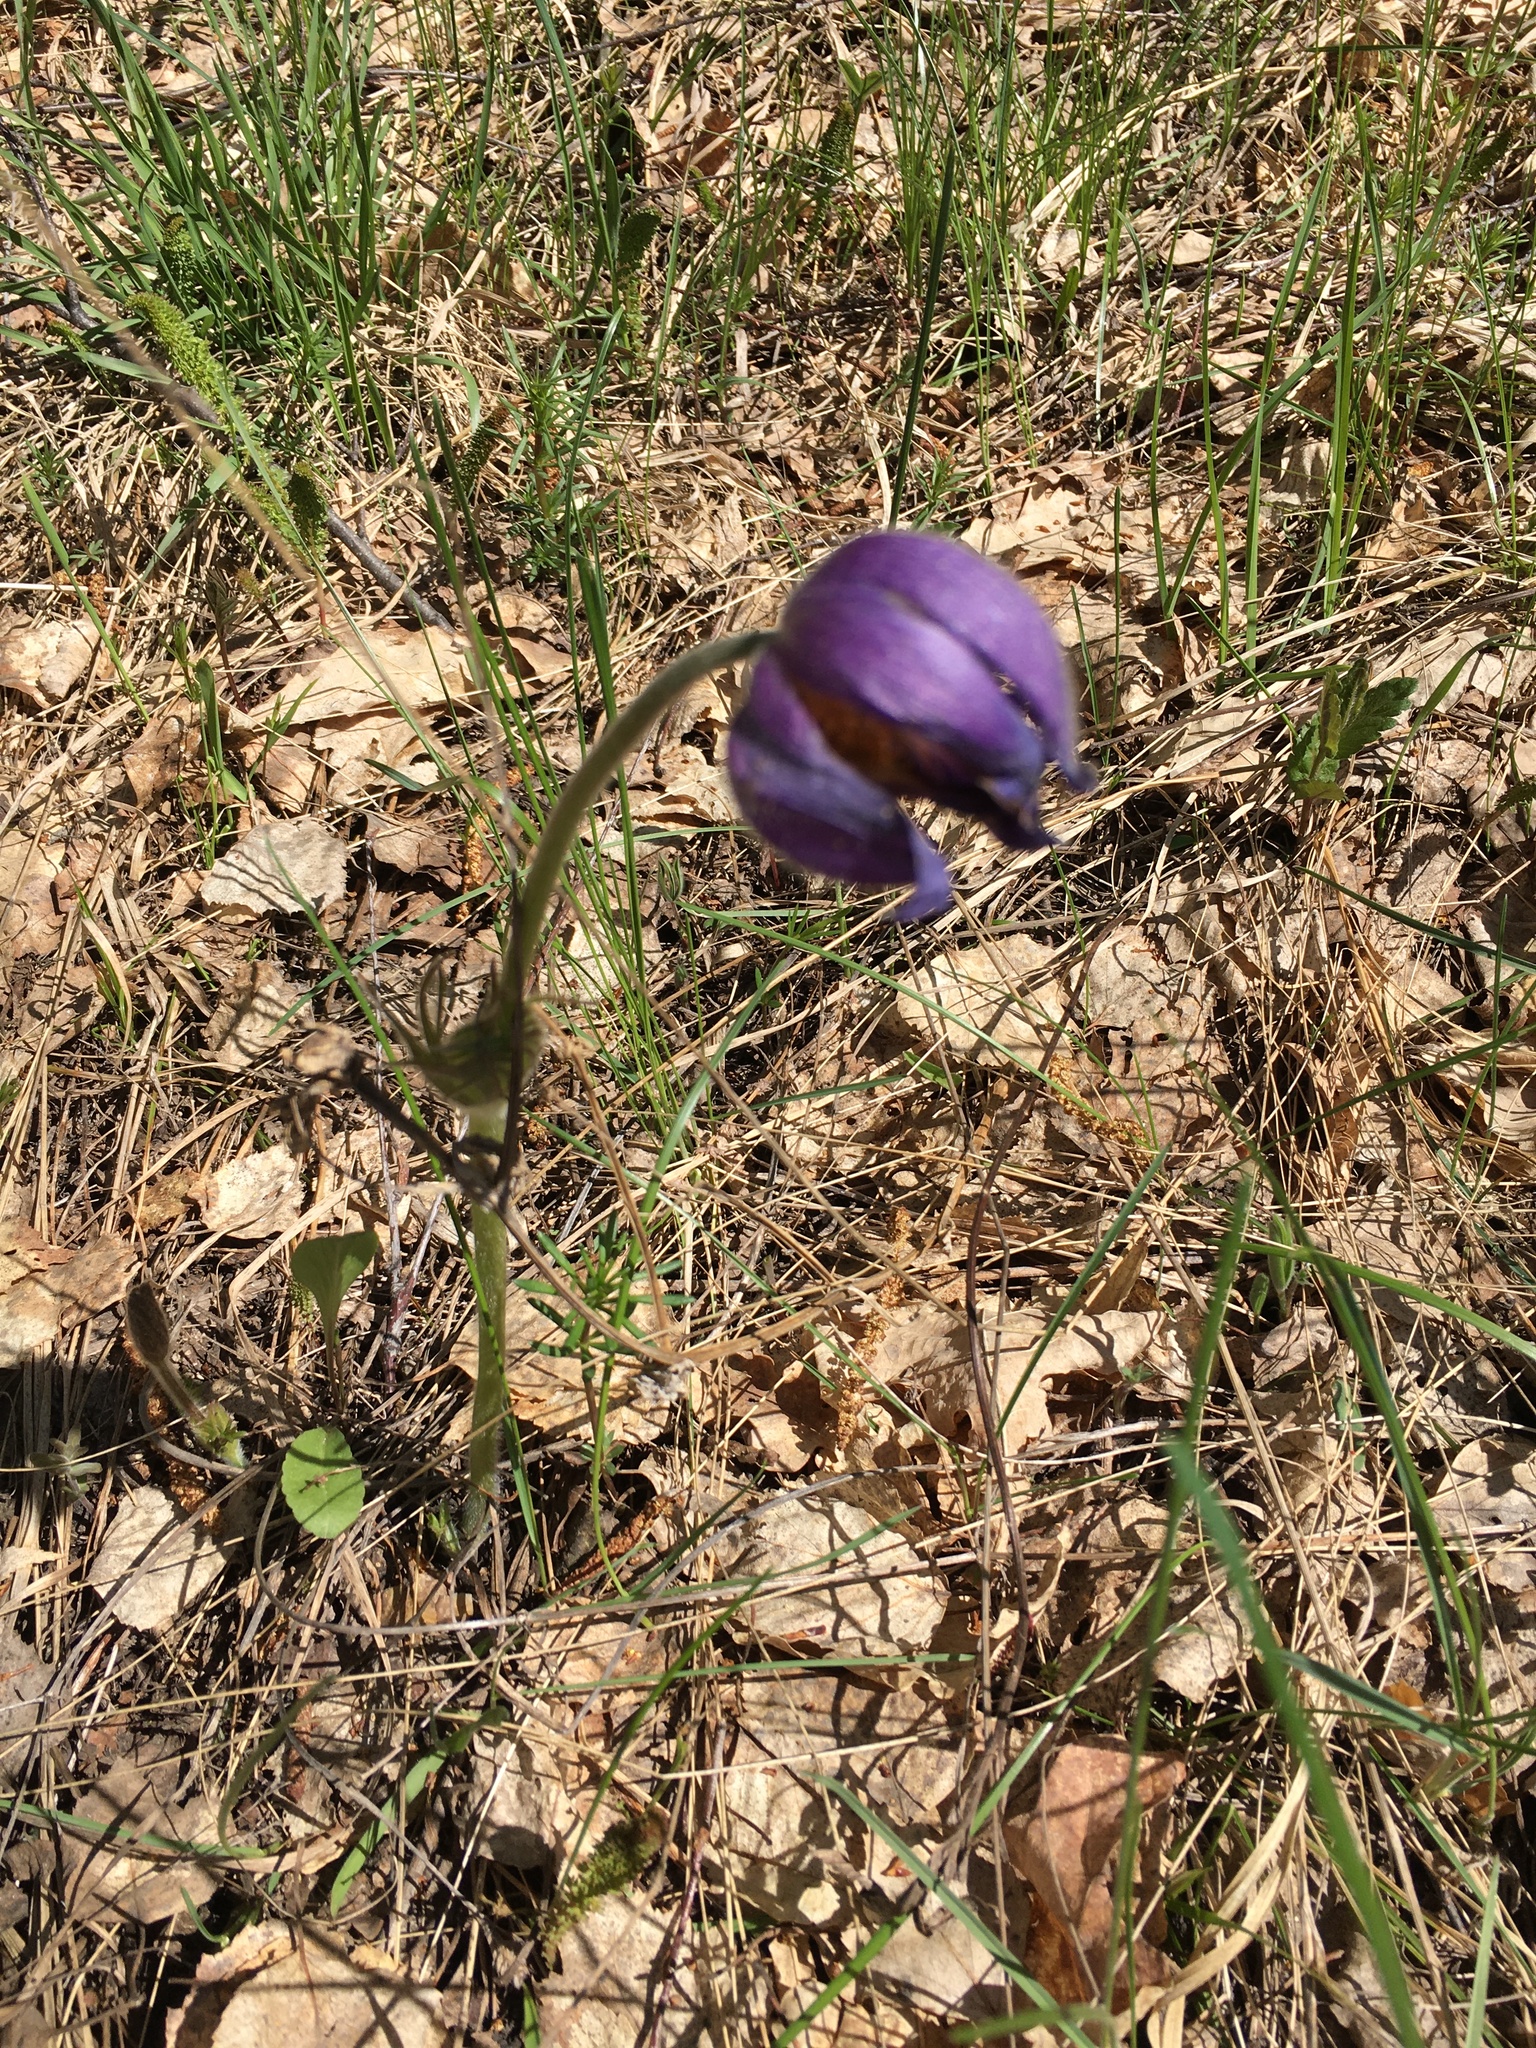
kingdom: Plantae
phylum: Tracheophyta
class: Magnoliopsida
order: Ranunculales
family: Ranunculaceae
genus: Pulsatilla
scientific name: Pulsatilla patens
